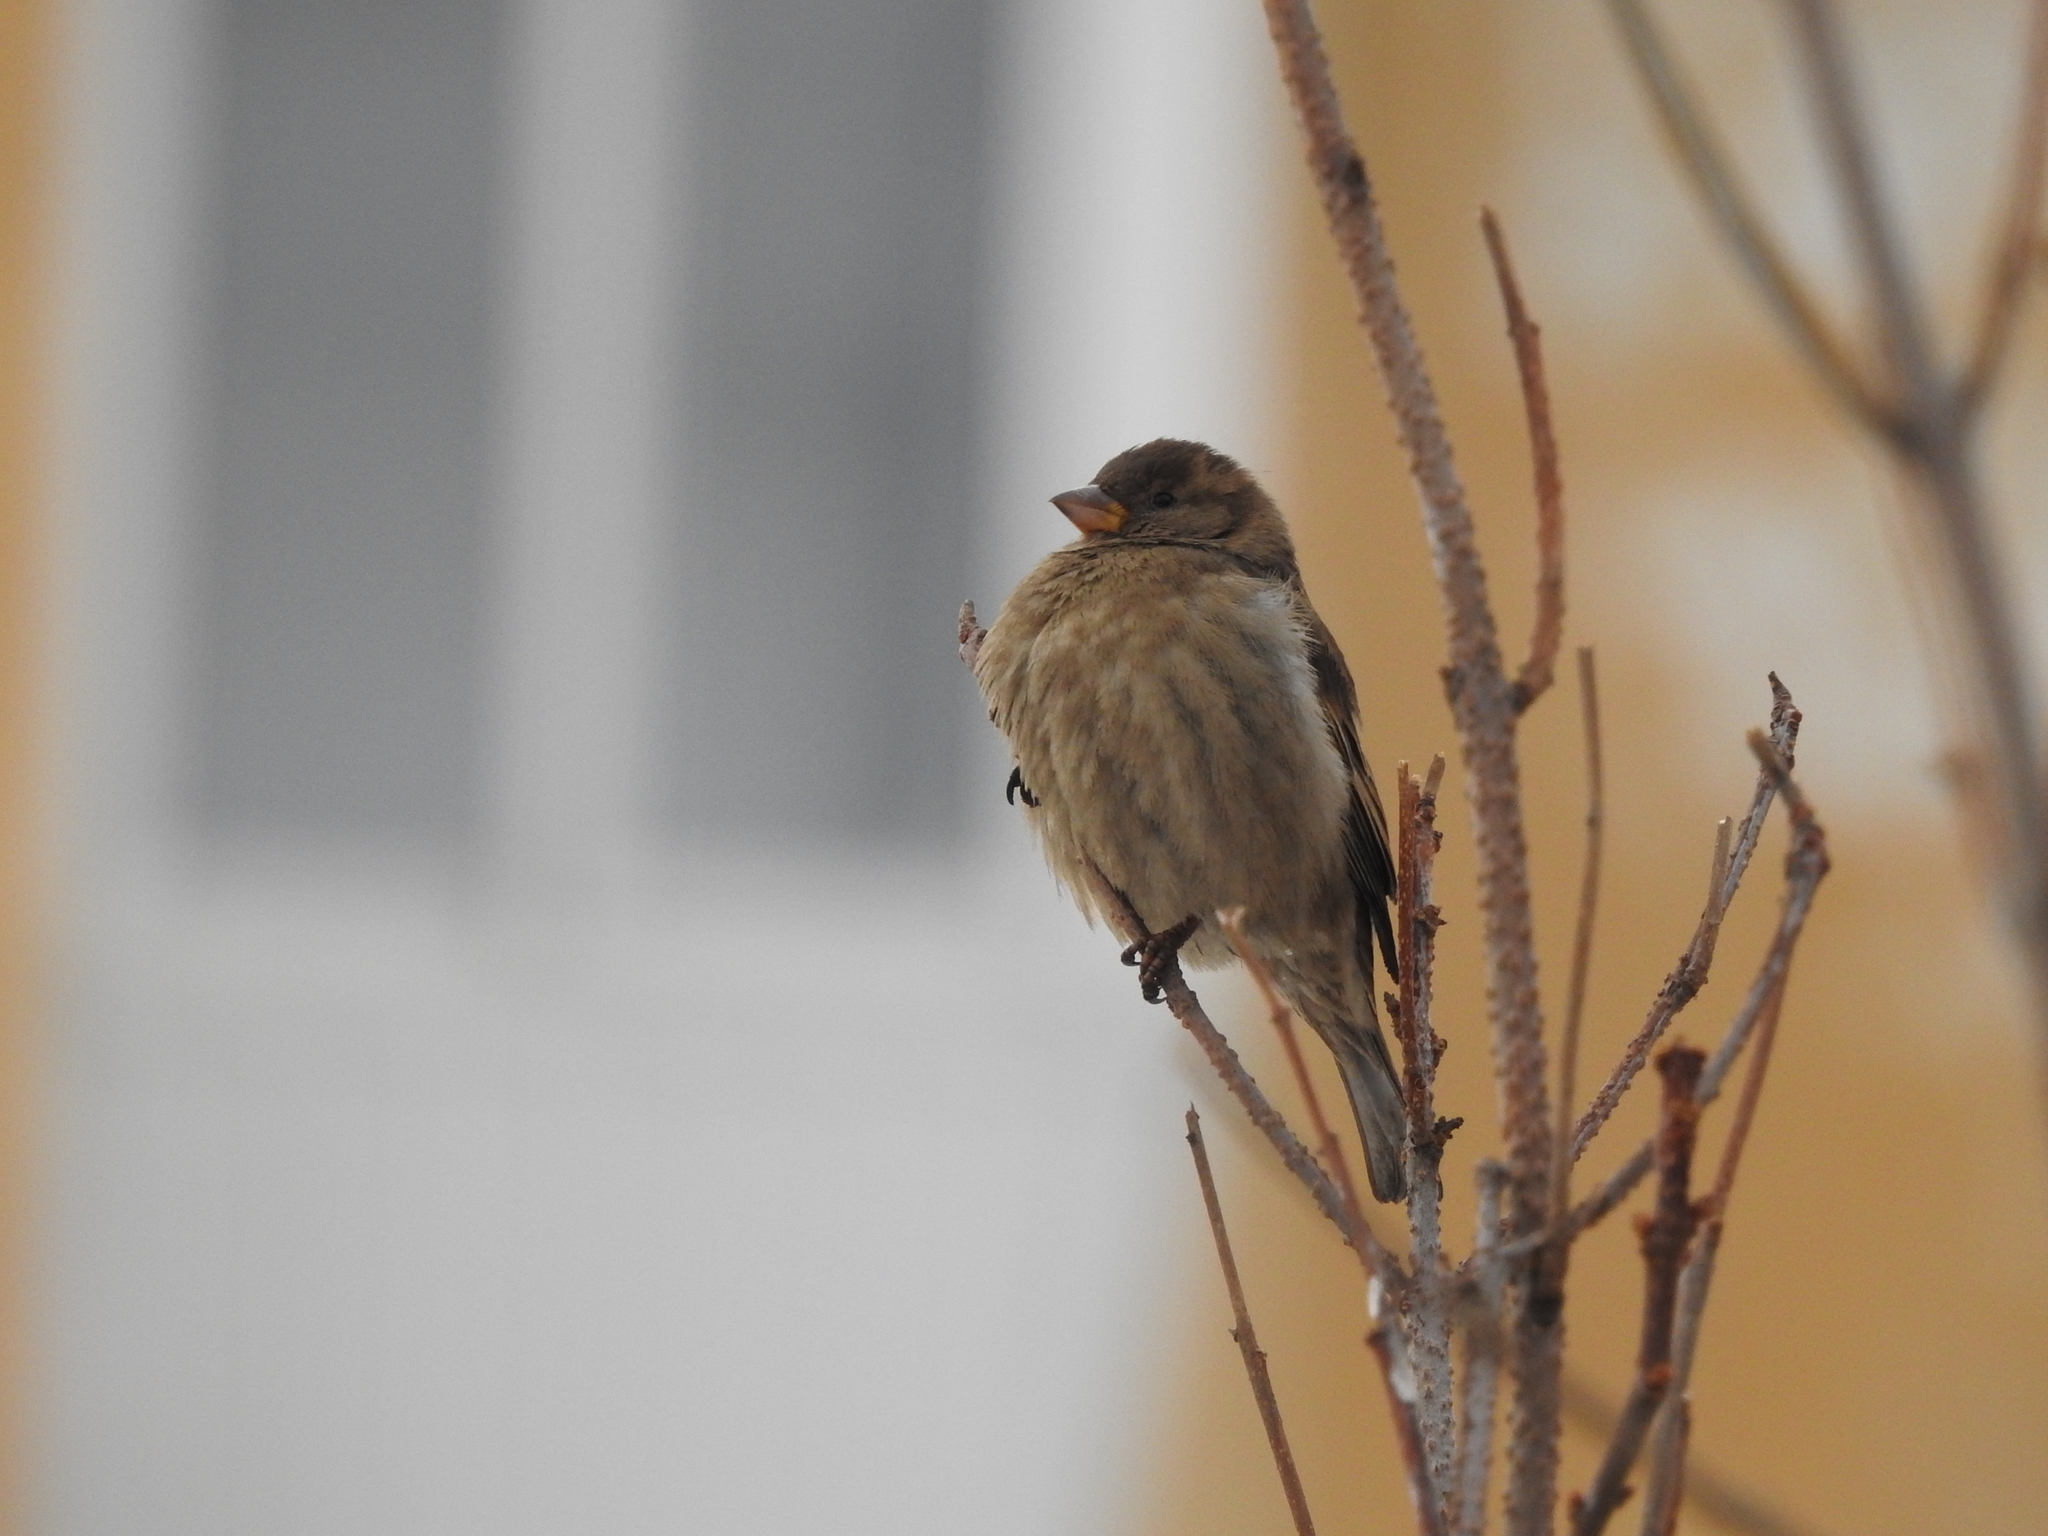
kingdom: Animalia
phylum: Chordata
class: Aves
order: Passeriformes
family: Passeridae
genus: Passer
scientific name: Passer domesticus
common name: House sparrow
